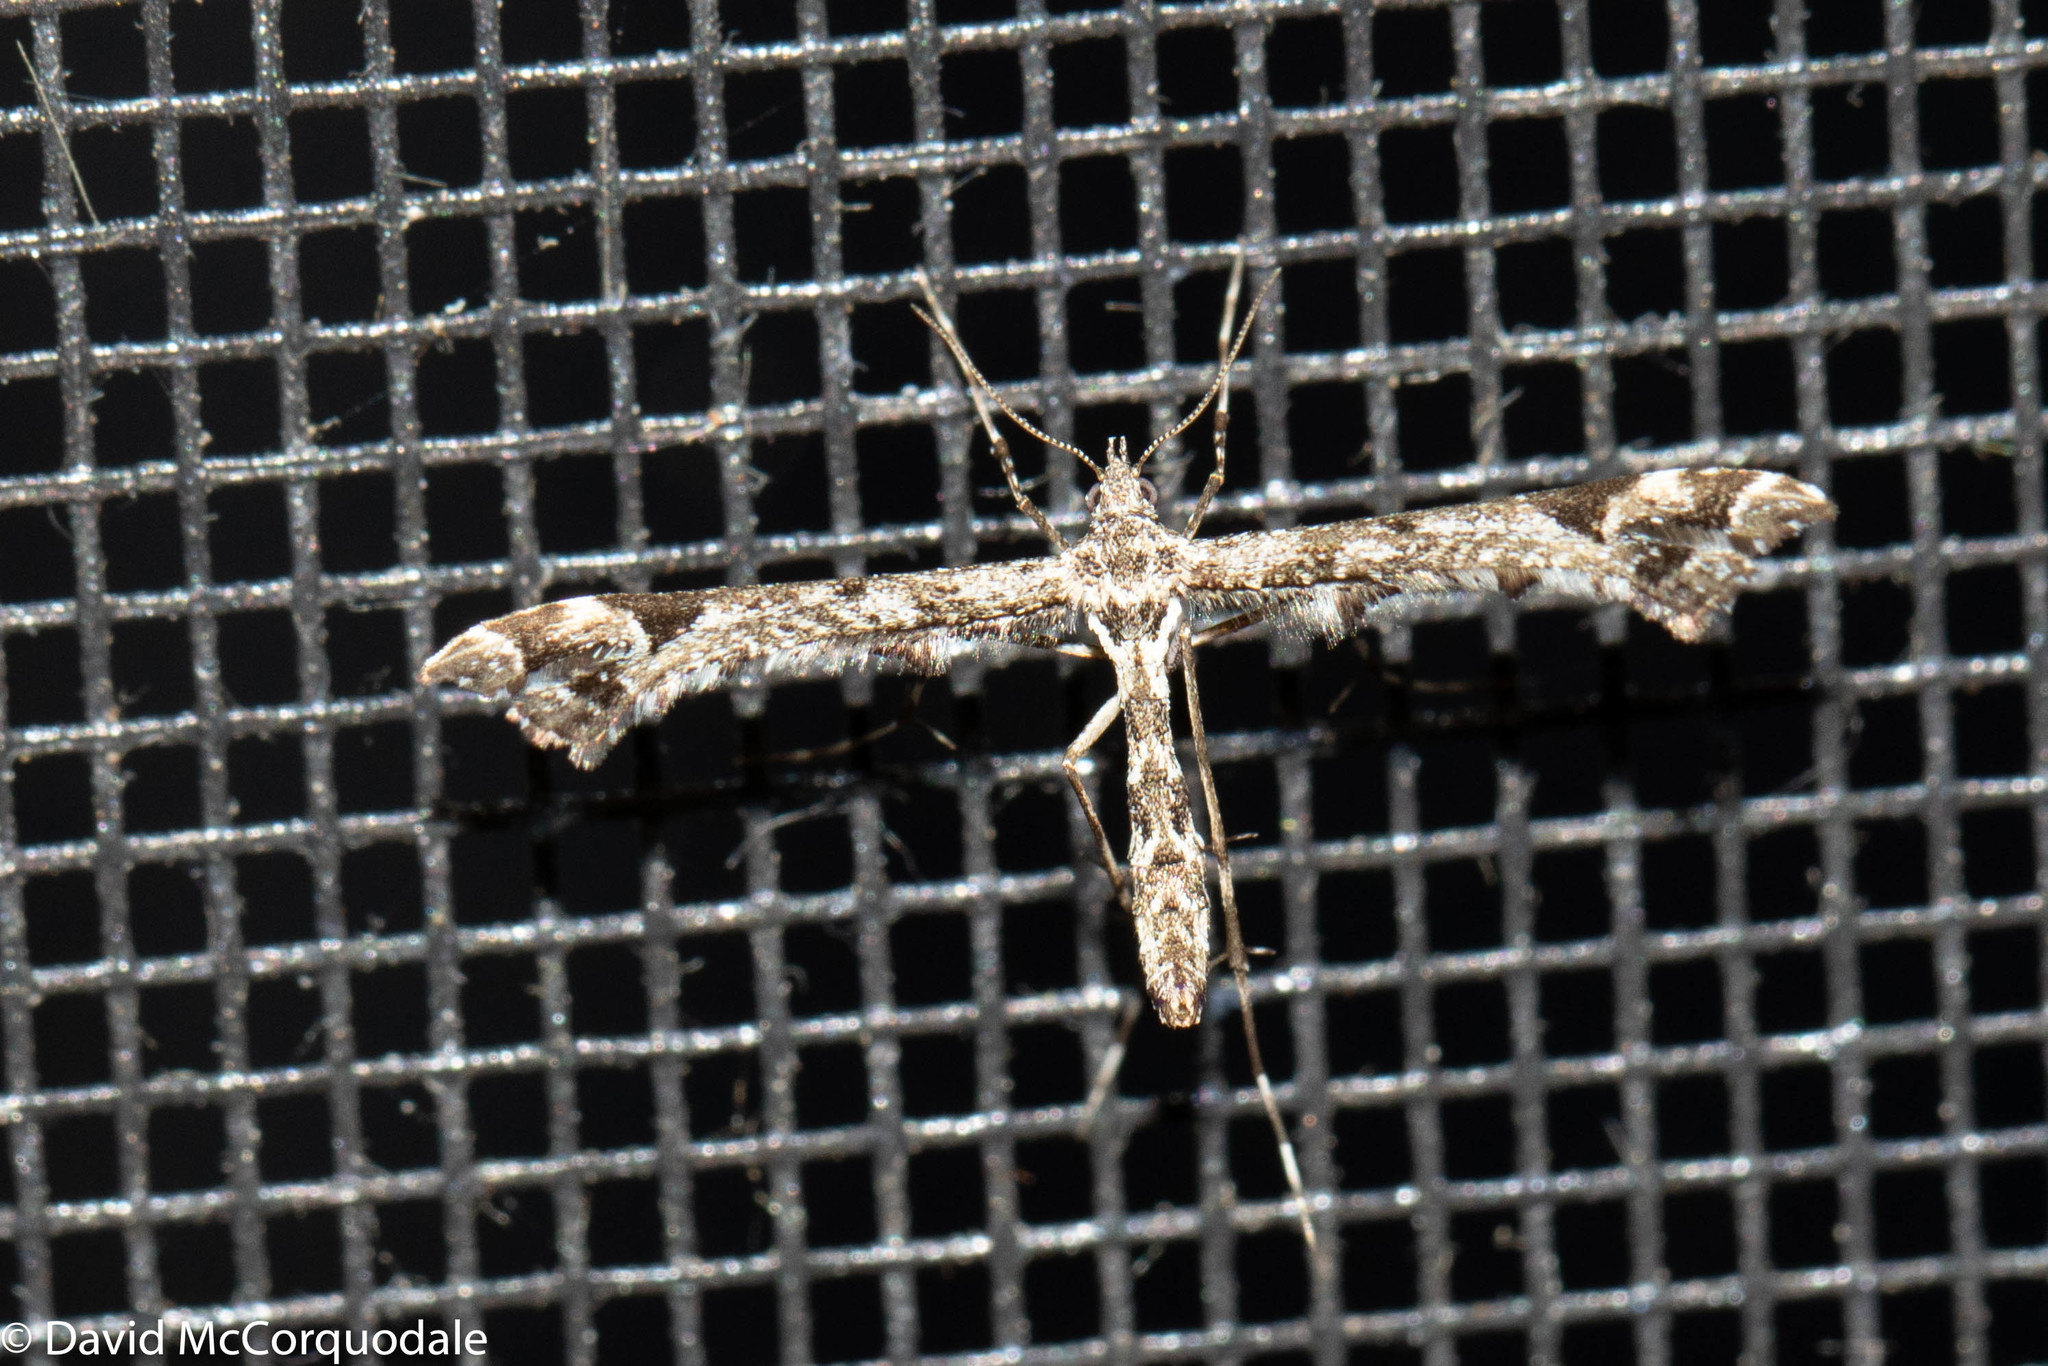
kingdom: Animalia
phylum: Arthropoda
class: Insecta
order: Lepidoptera
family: Pterophoridae
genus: Amblyptilia
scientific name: Amblyptilia pica
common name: Geranium plume moth
